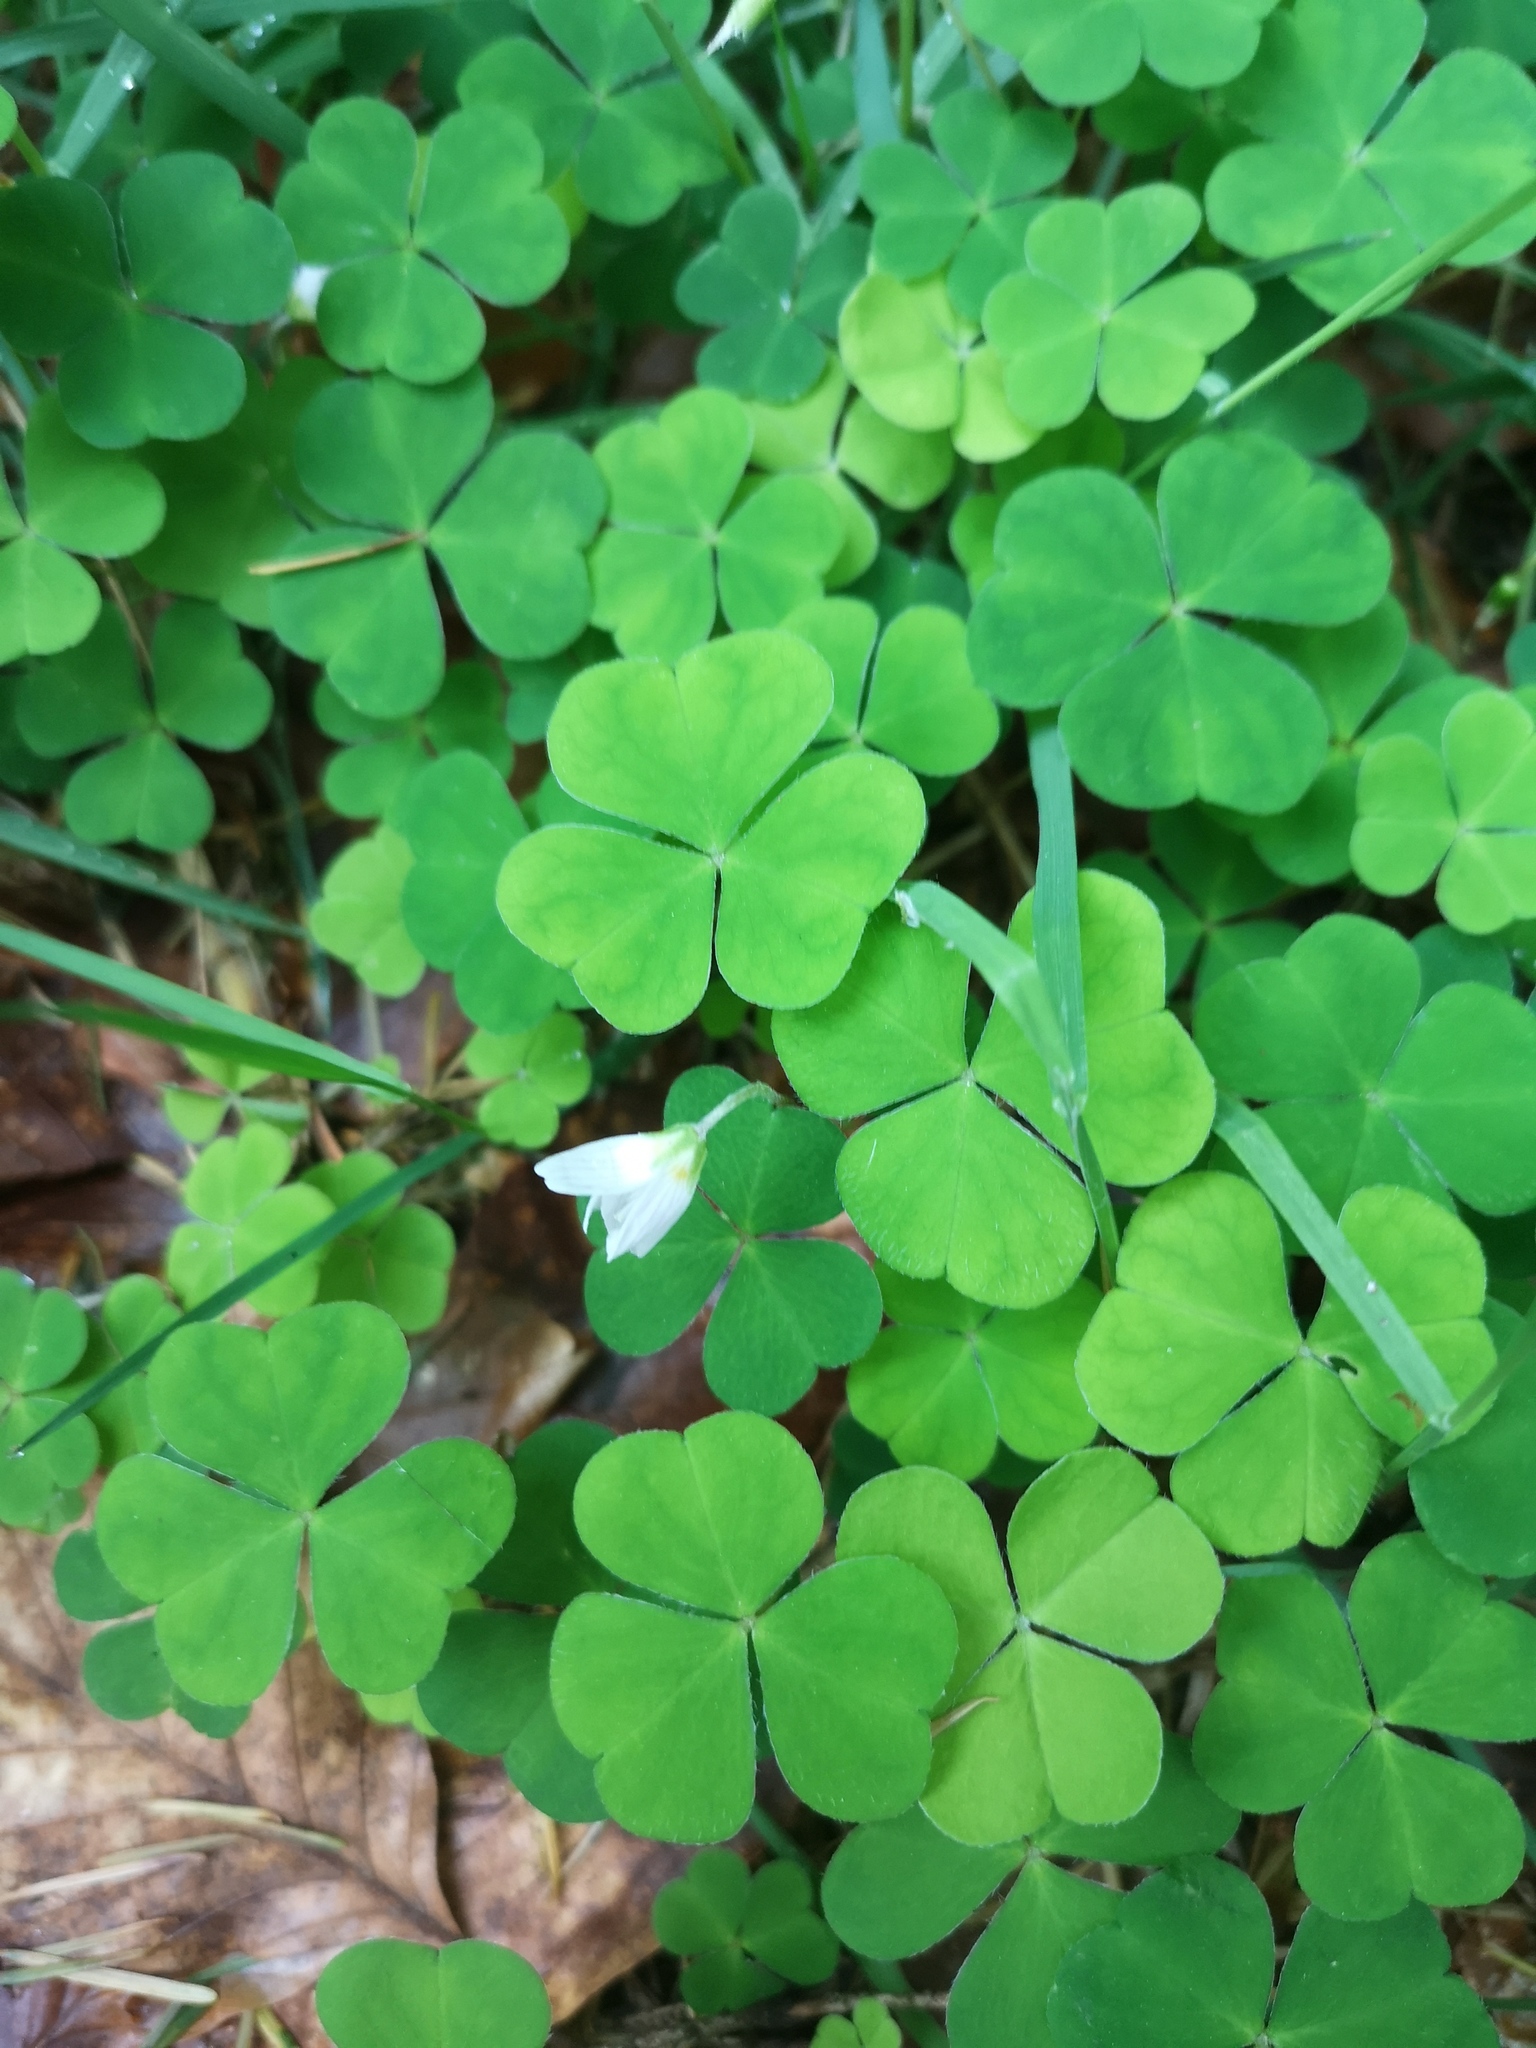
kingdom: Plantae
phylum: Tracheophyta
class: Magnoliopsida
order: Oxalidales
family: Oxalidaceae
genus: Oxalis
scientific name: Oxalis acetosella
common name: Wood-sorrel
